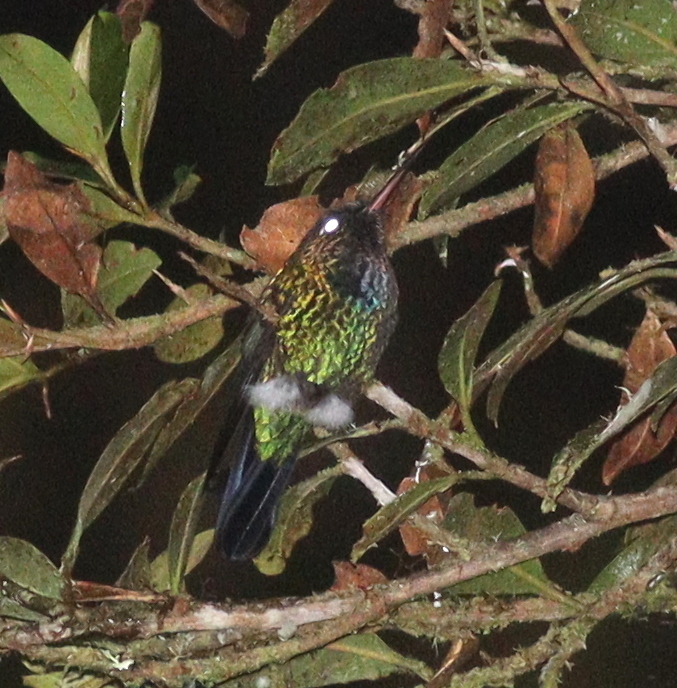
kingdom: Animalia
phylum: Chordata
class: Aves
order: Apodiformes
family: Trochilidae
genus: Panterpe
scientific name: Panterpe insignis
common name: Fiery-throated hummingbird
